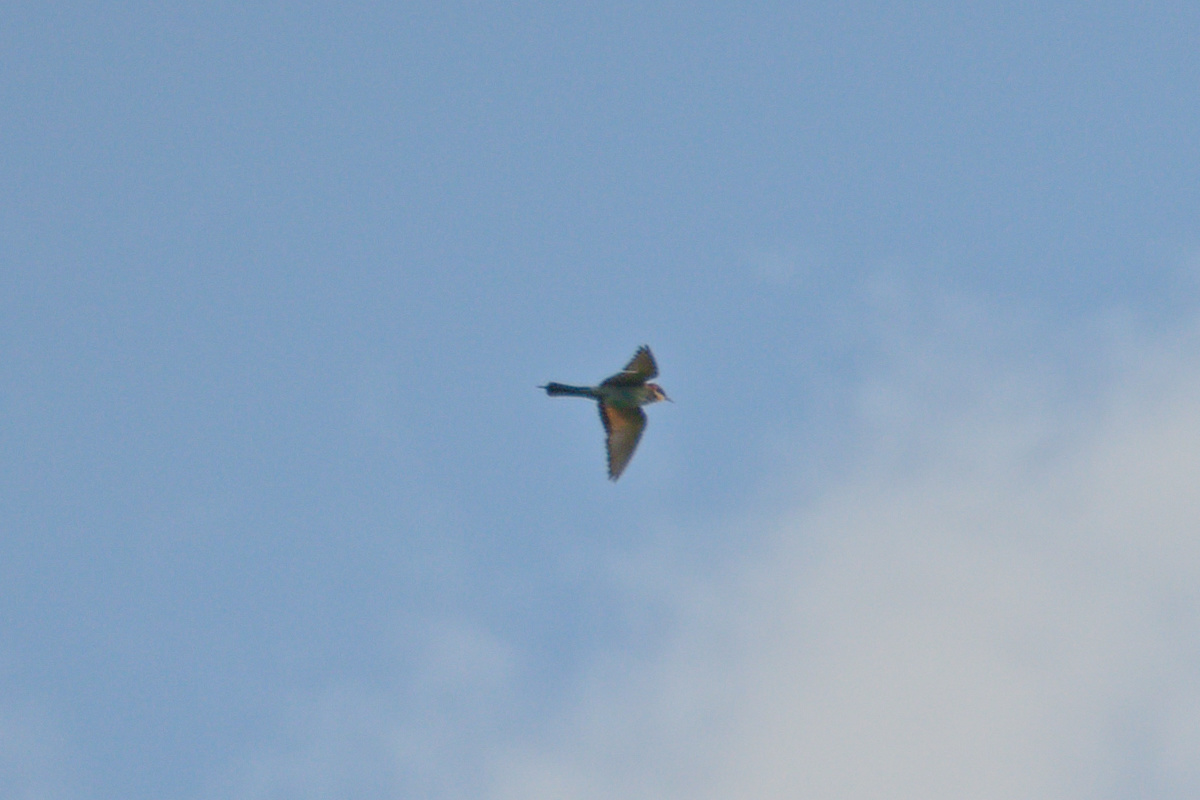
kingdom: Animalia
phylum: Chordata
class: Aves
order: Coraciiformes
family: Meropidae
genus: Merops
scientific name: Merops apiaster
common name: European bee-eater
